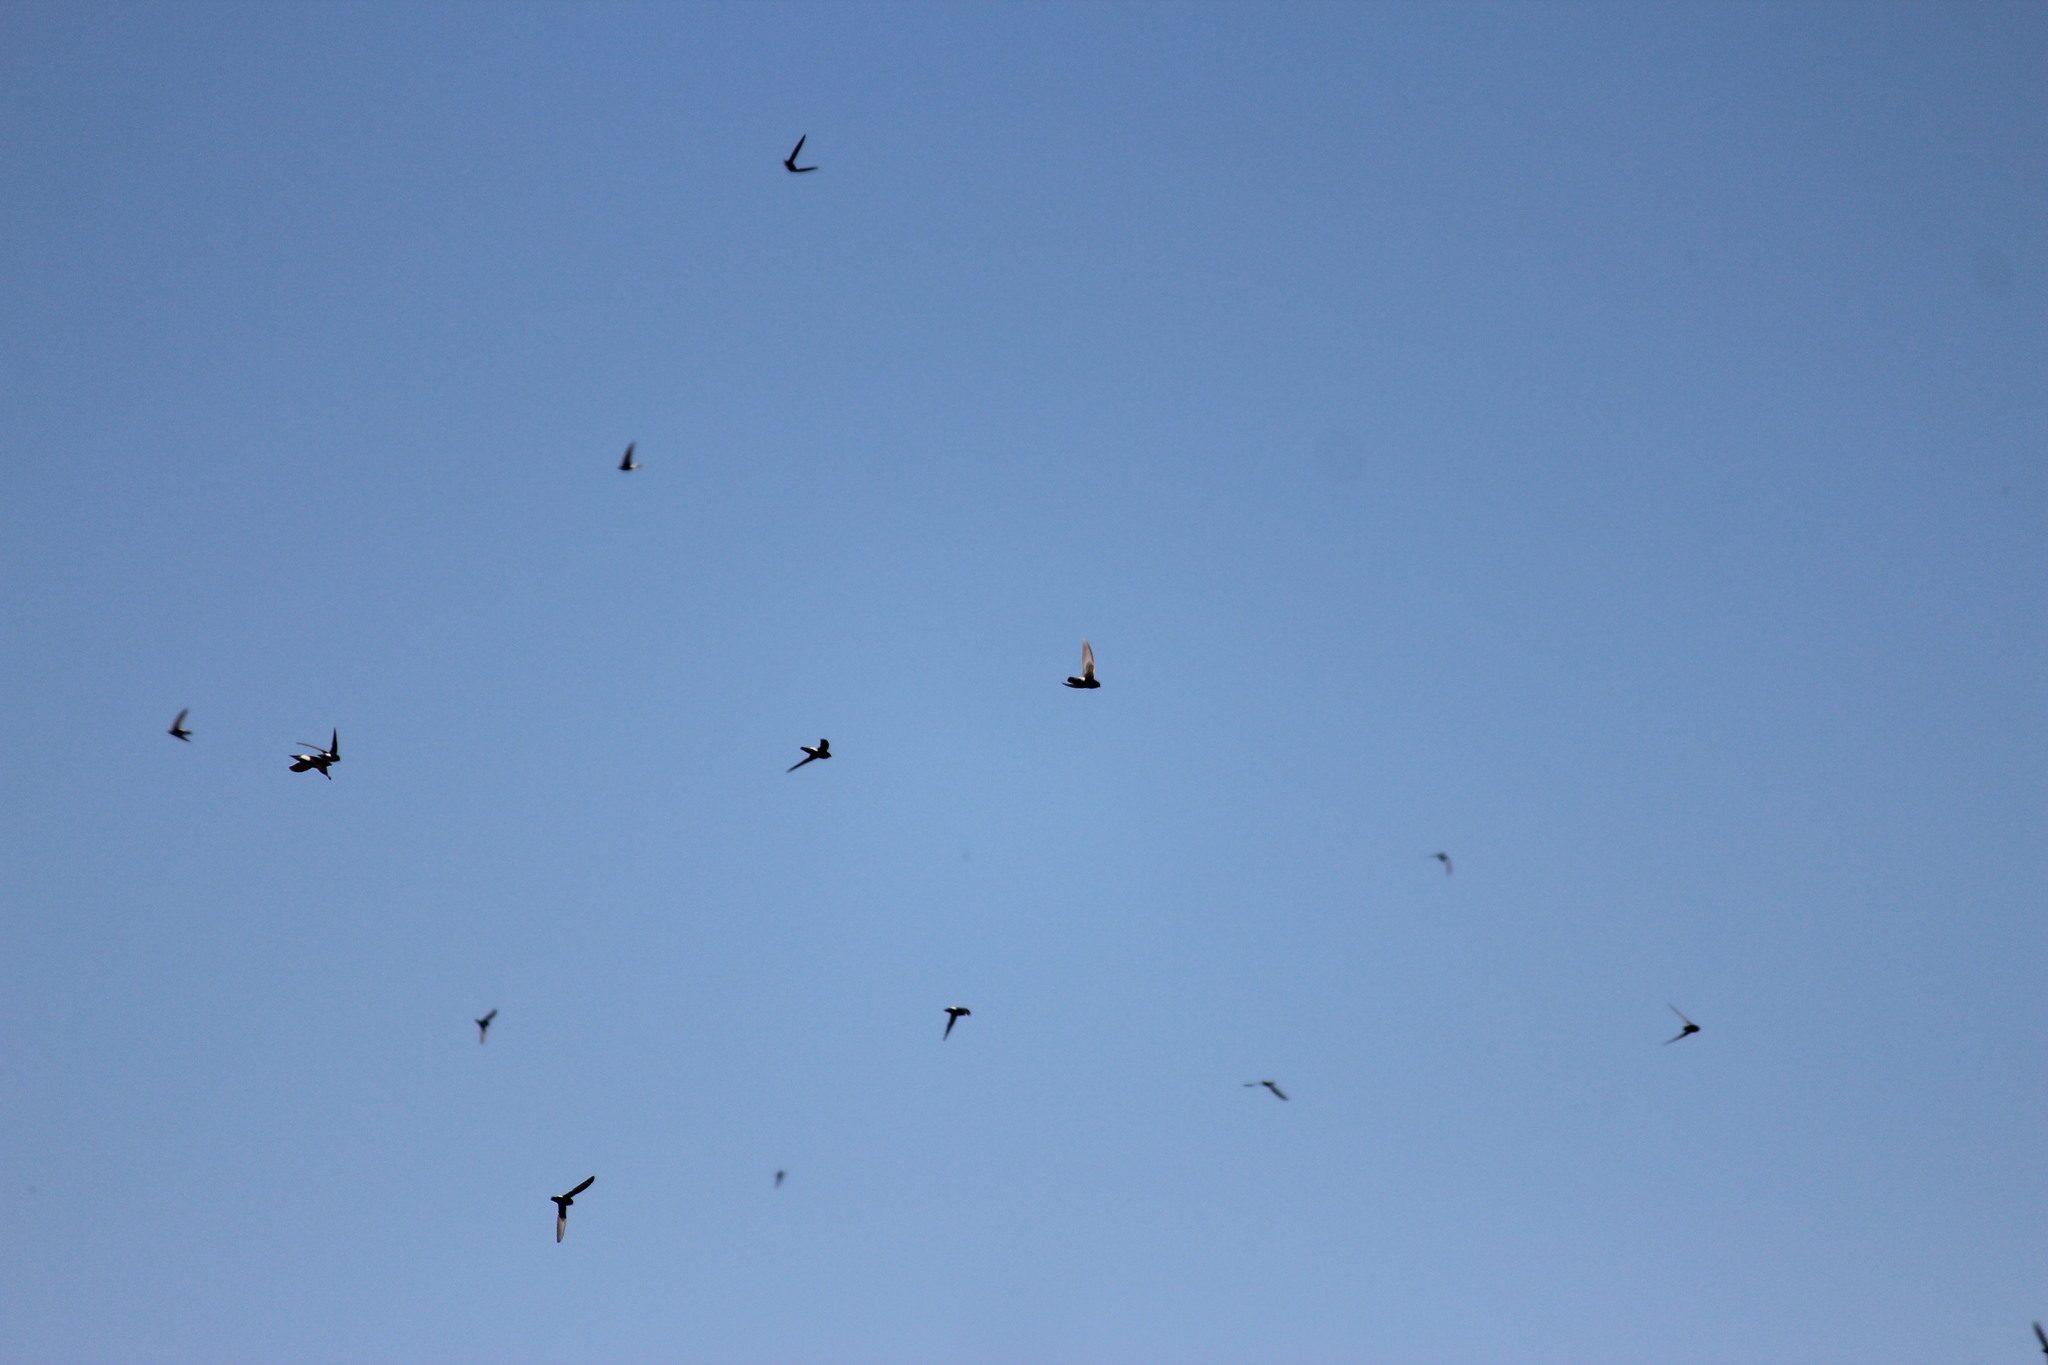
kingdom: Animalia
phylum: Chordata
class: Aves
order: Apodiformes
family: Apodidae
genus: Apus
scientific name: Apus affinis
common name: Little swift
